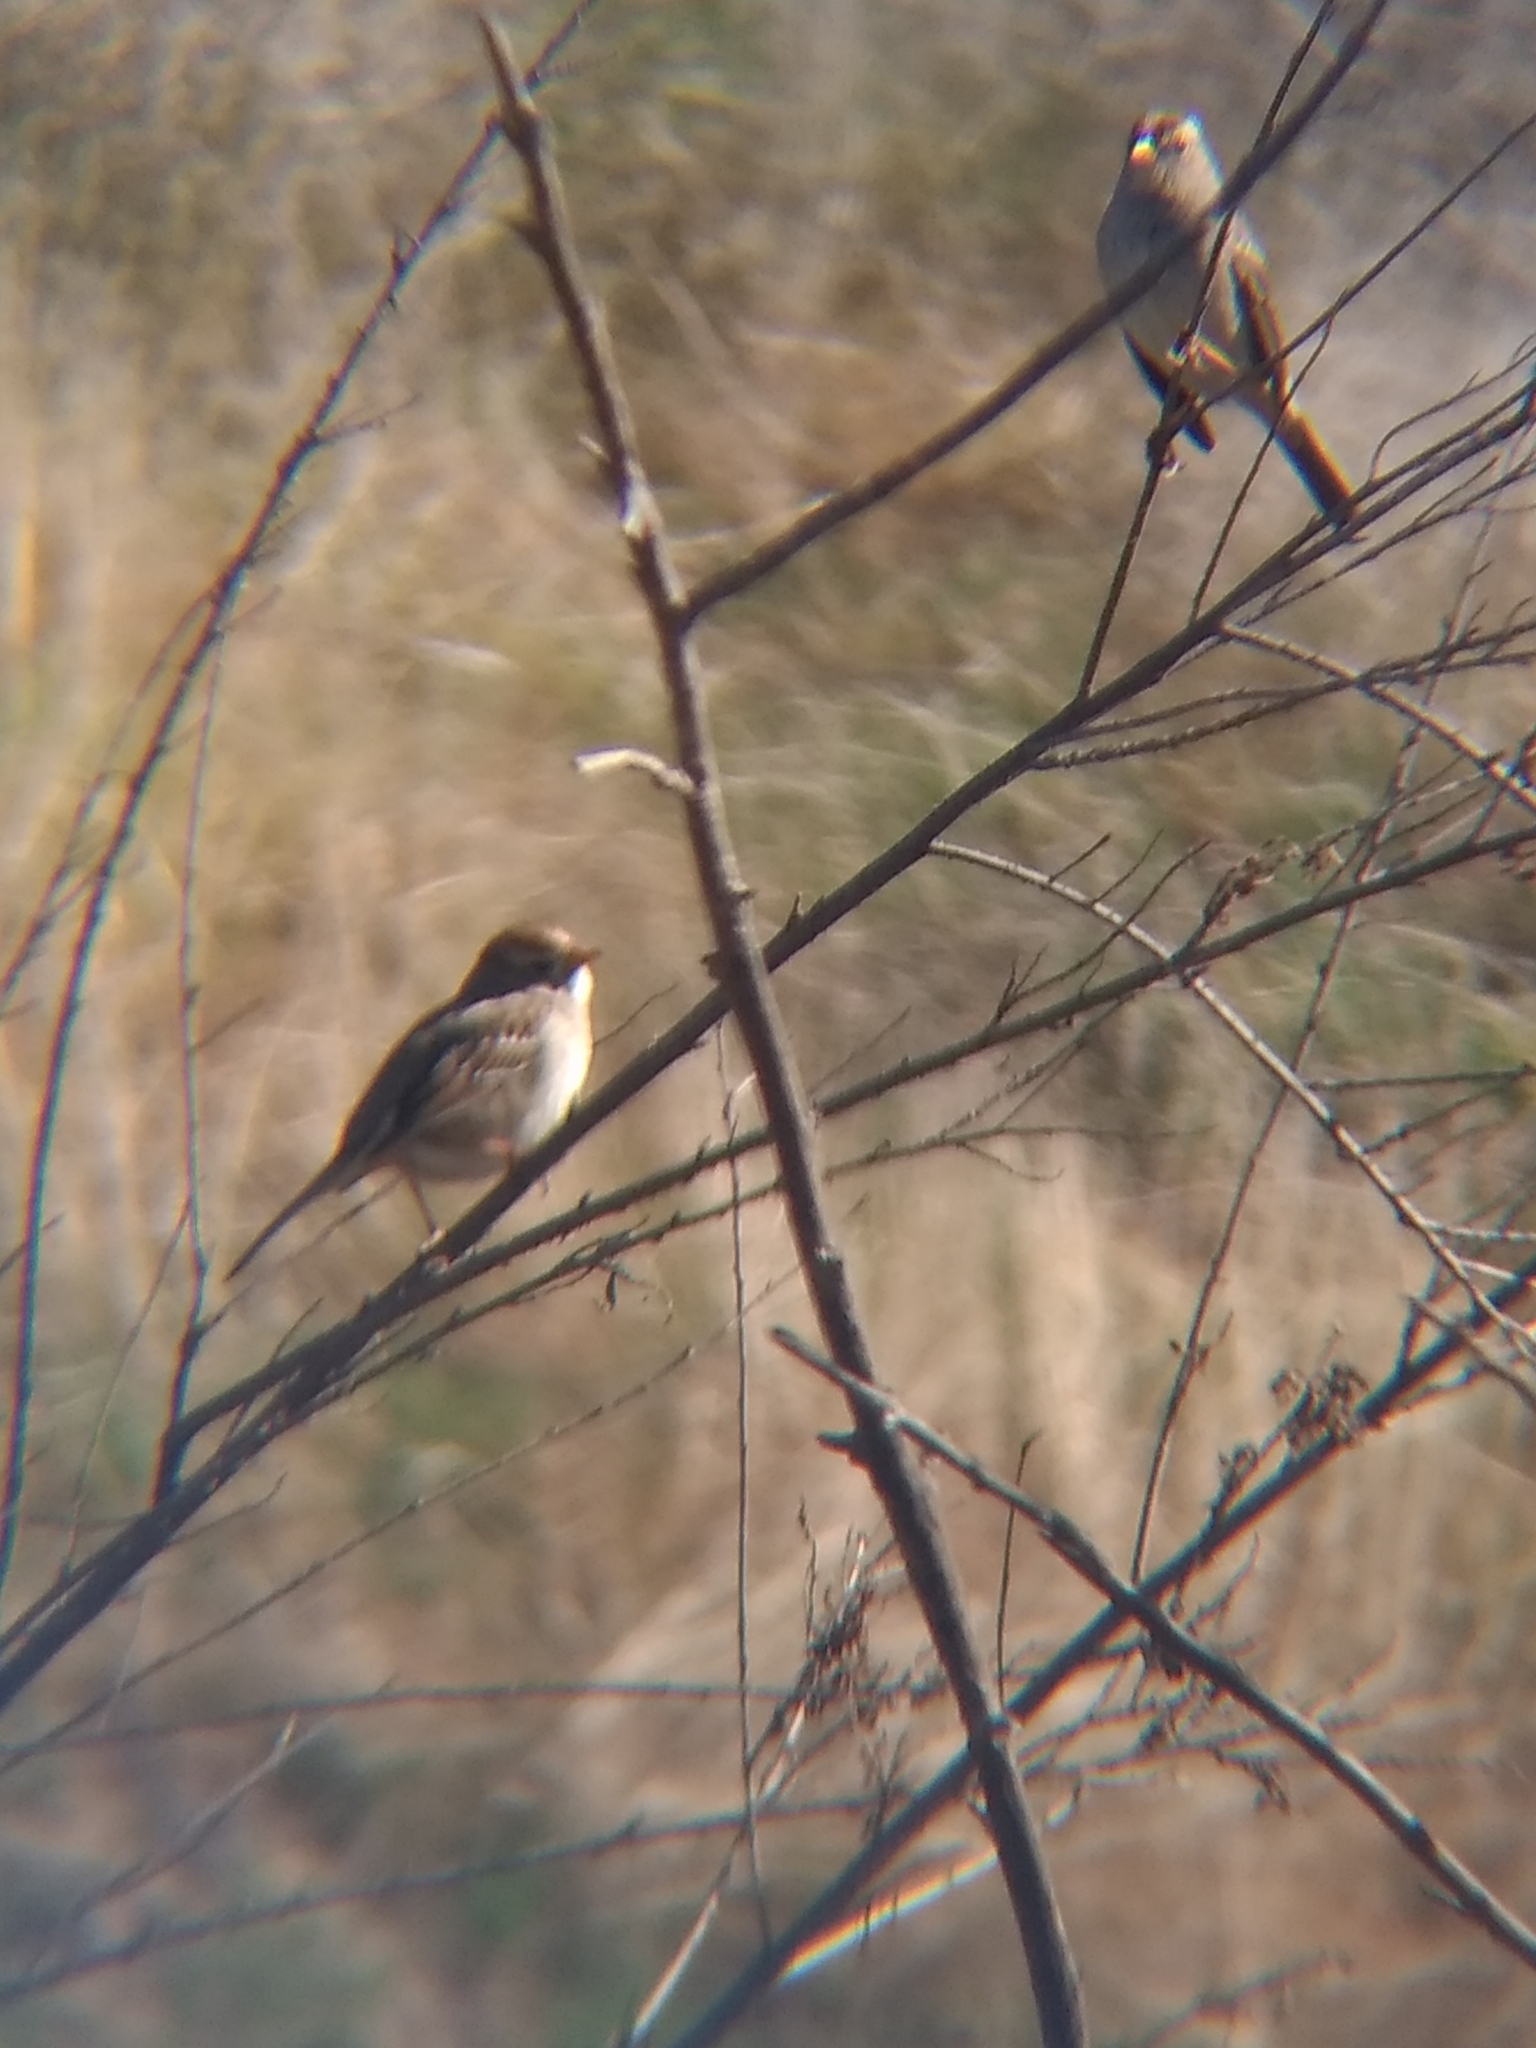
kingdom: Animalia
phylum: Chordata
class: Aves
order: Passeriformes
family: Passerellidae
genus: Zonotrichia
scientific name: Zonotrichia leucophrys
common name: White-crowned sparrow
